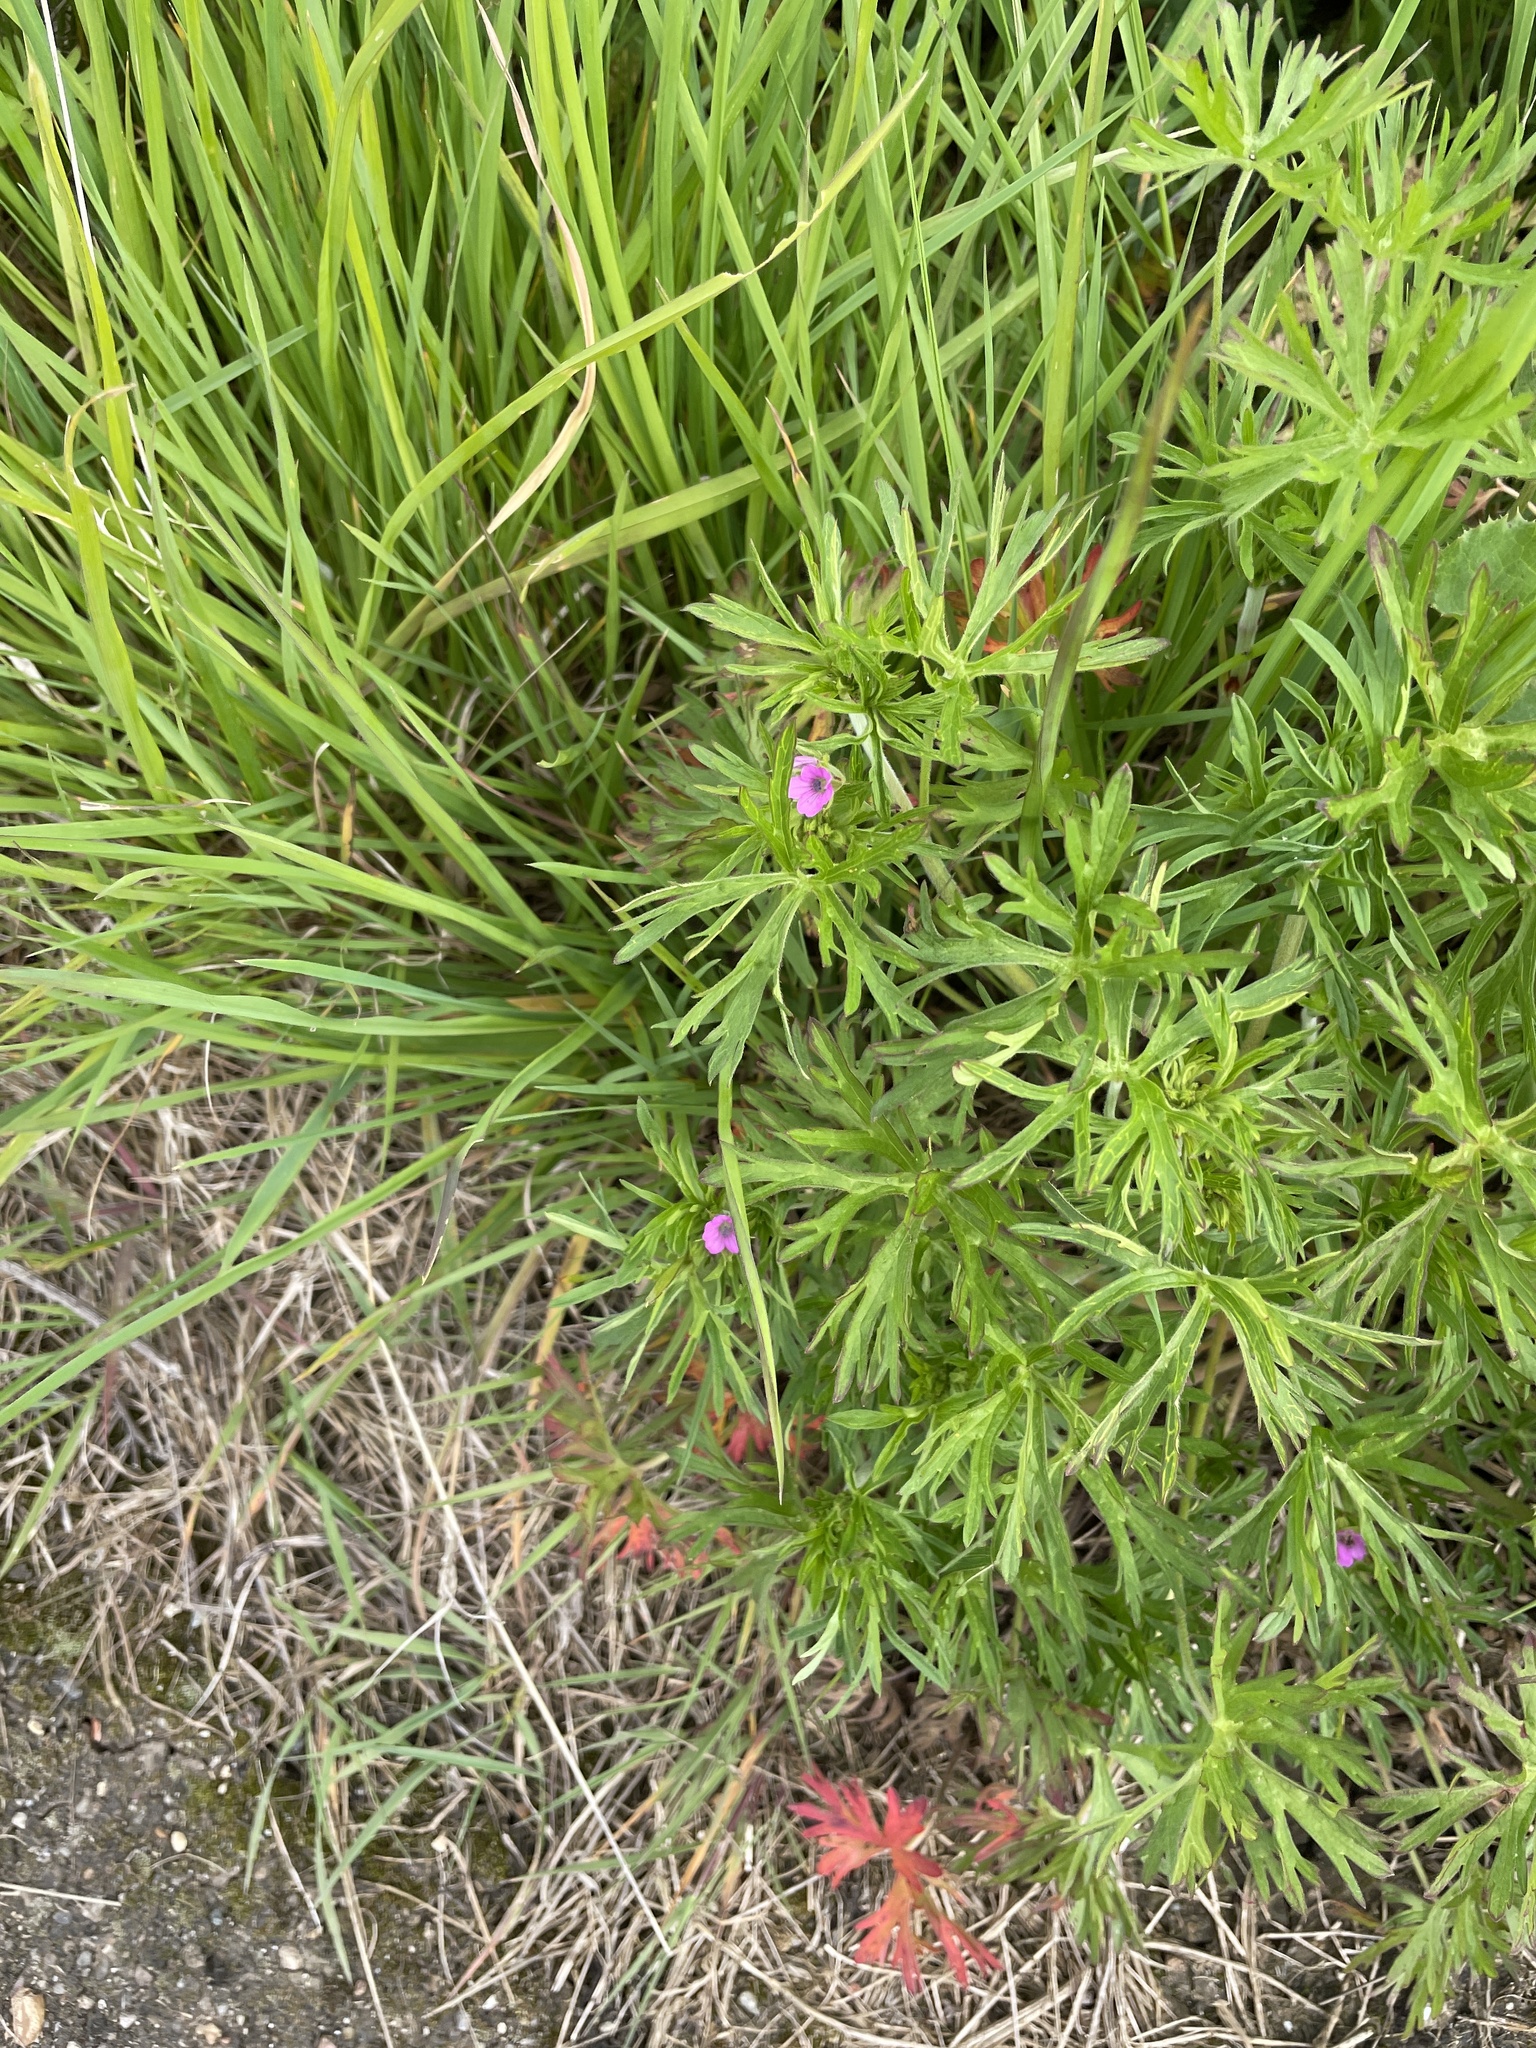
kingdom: Plantae
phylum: Tracheophyta
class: Magnoliopsida
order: Geraniales
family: Geraniaceae
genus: Geranium
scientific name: Geranium dissectum
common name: Cut-leaved crane's-bill
